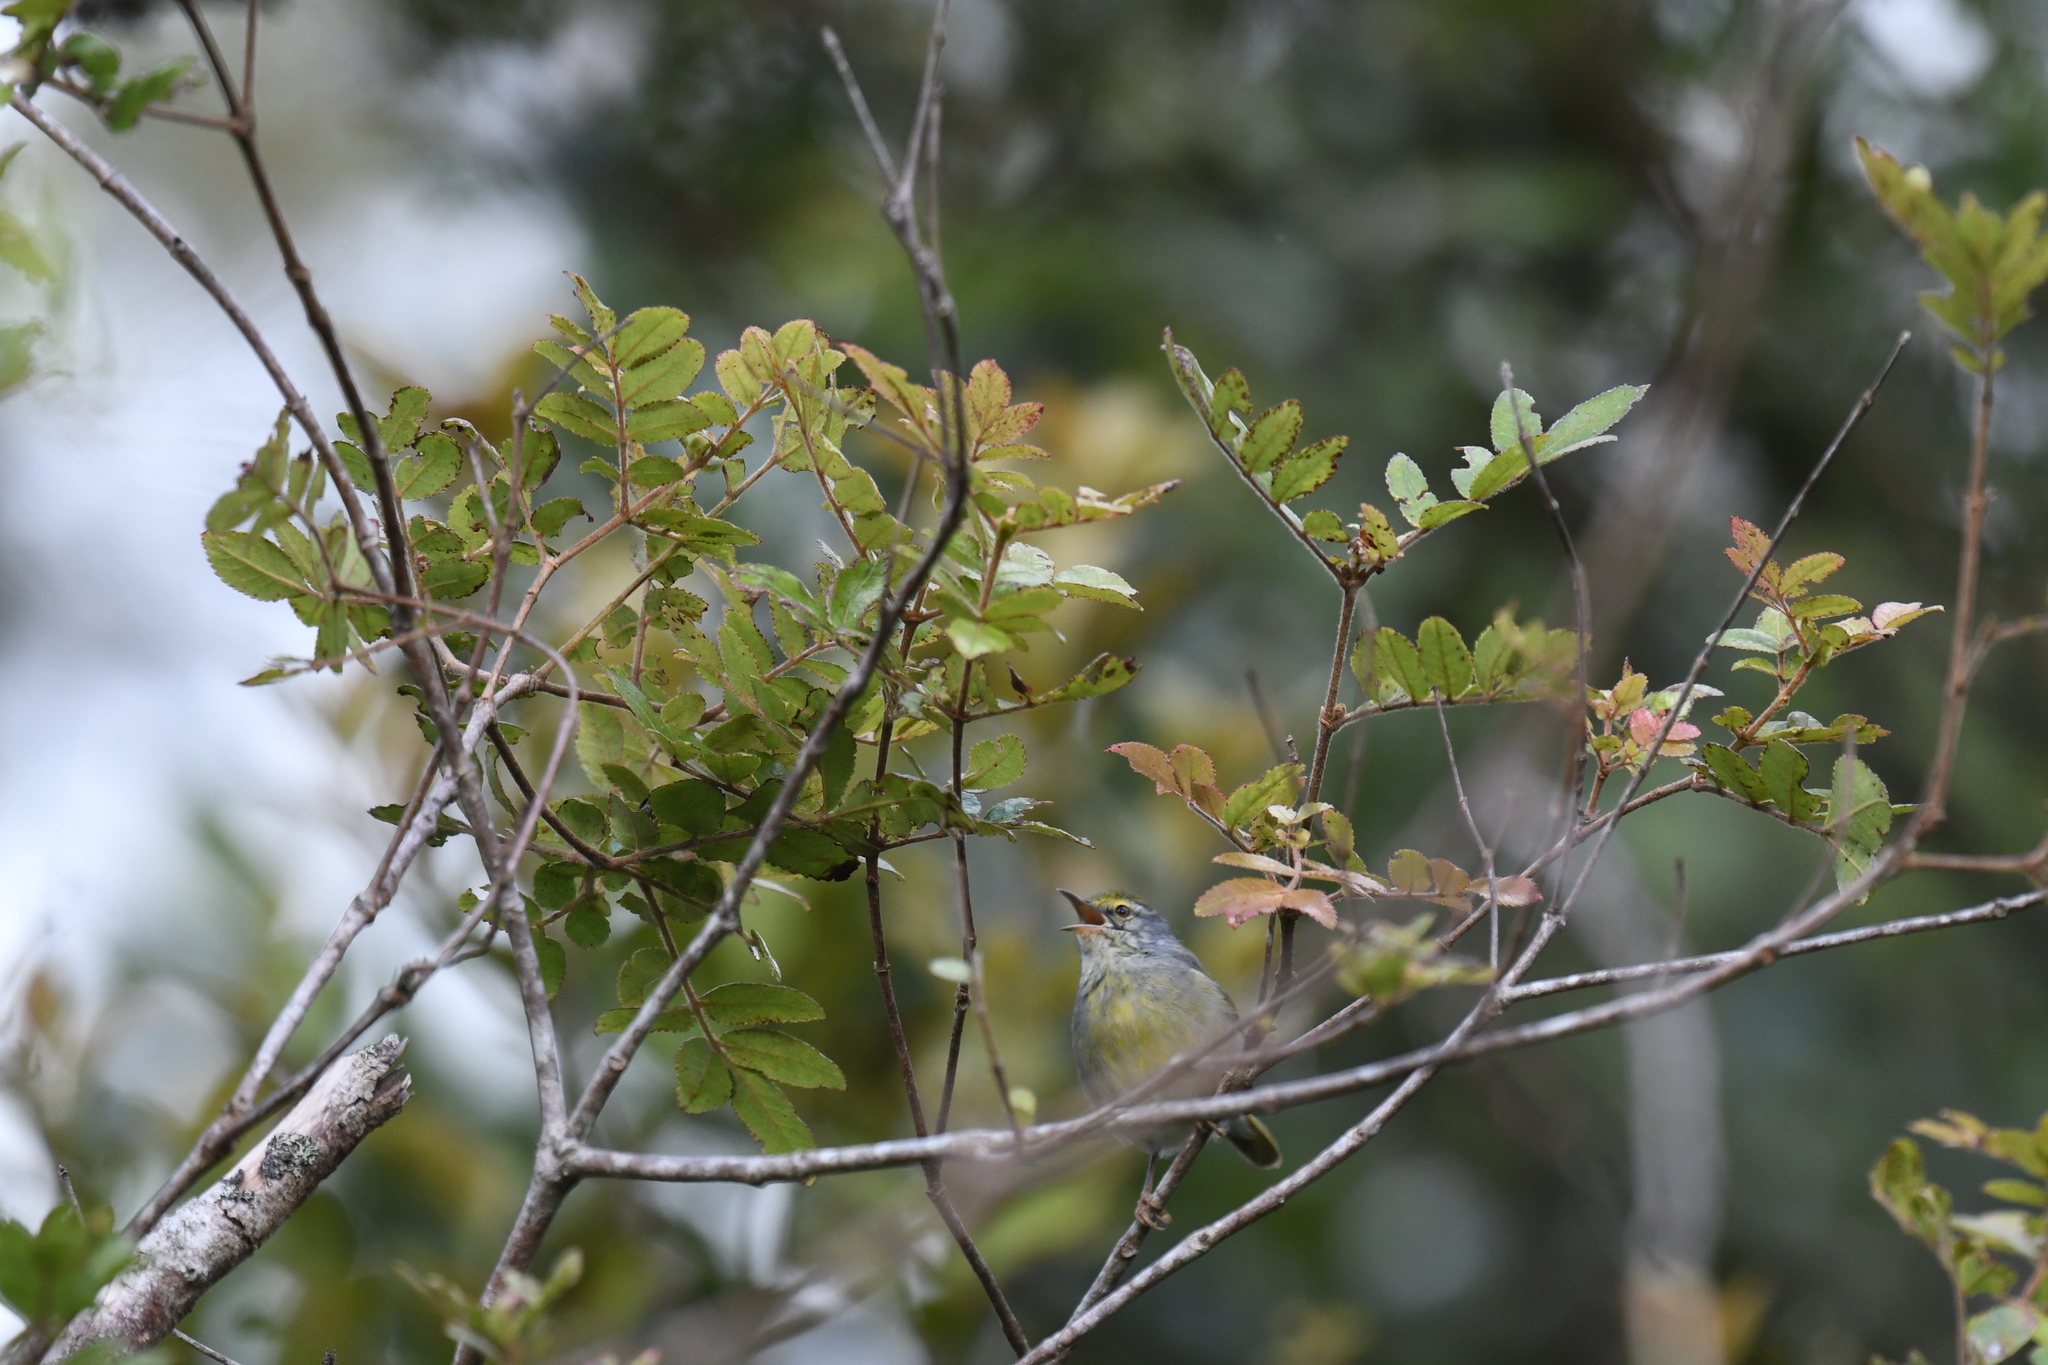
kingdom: Animalia
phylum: Chordata
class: Aves
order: Passeriformes
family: Cisticolidae
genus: Neomixis
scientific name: Neomixis tenella
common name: Common jery
